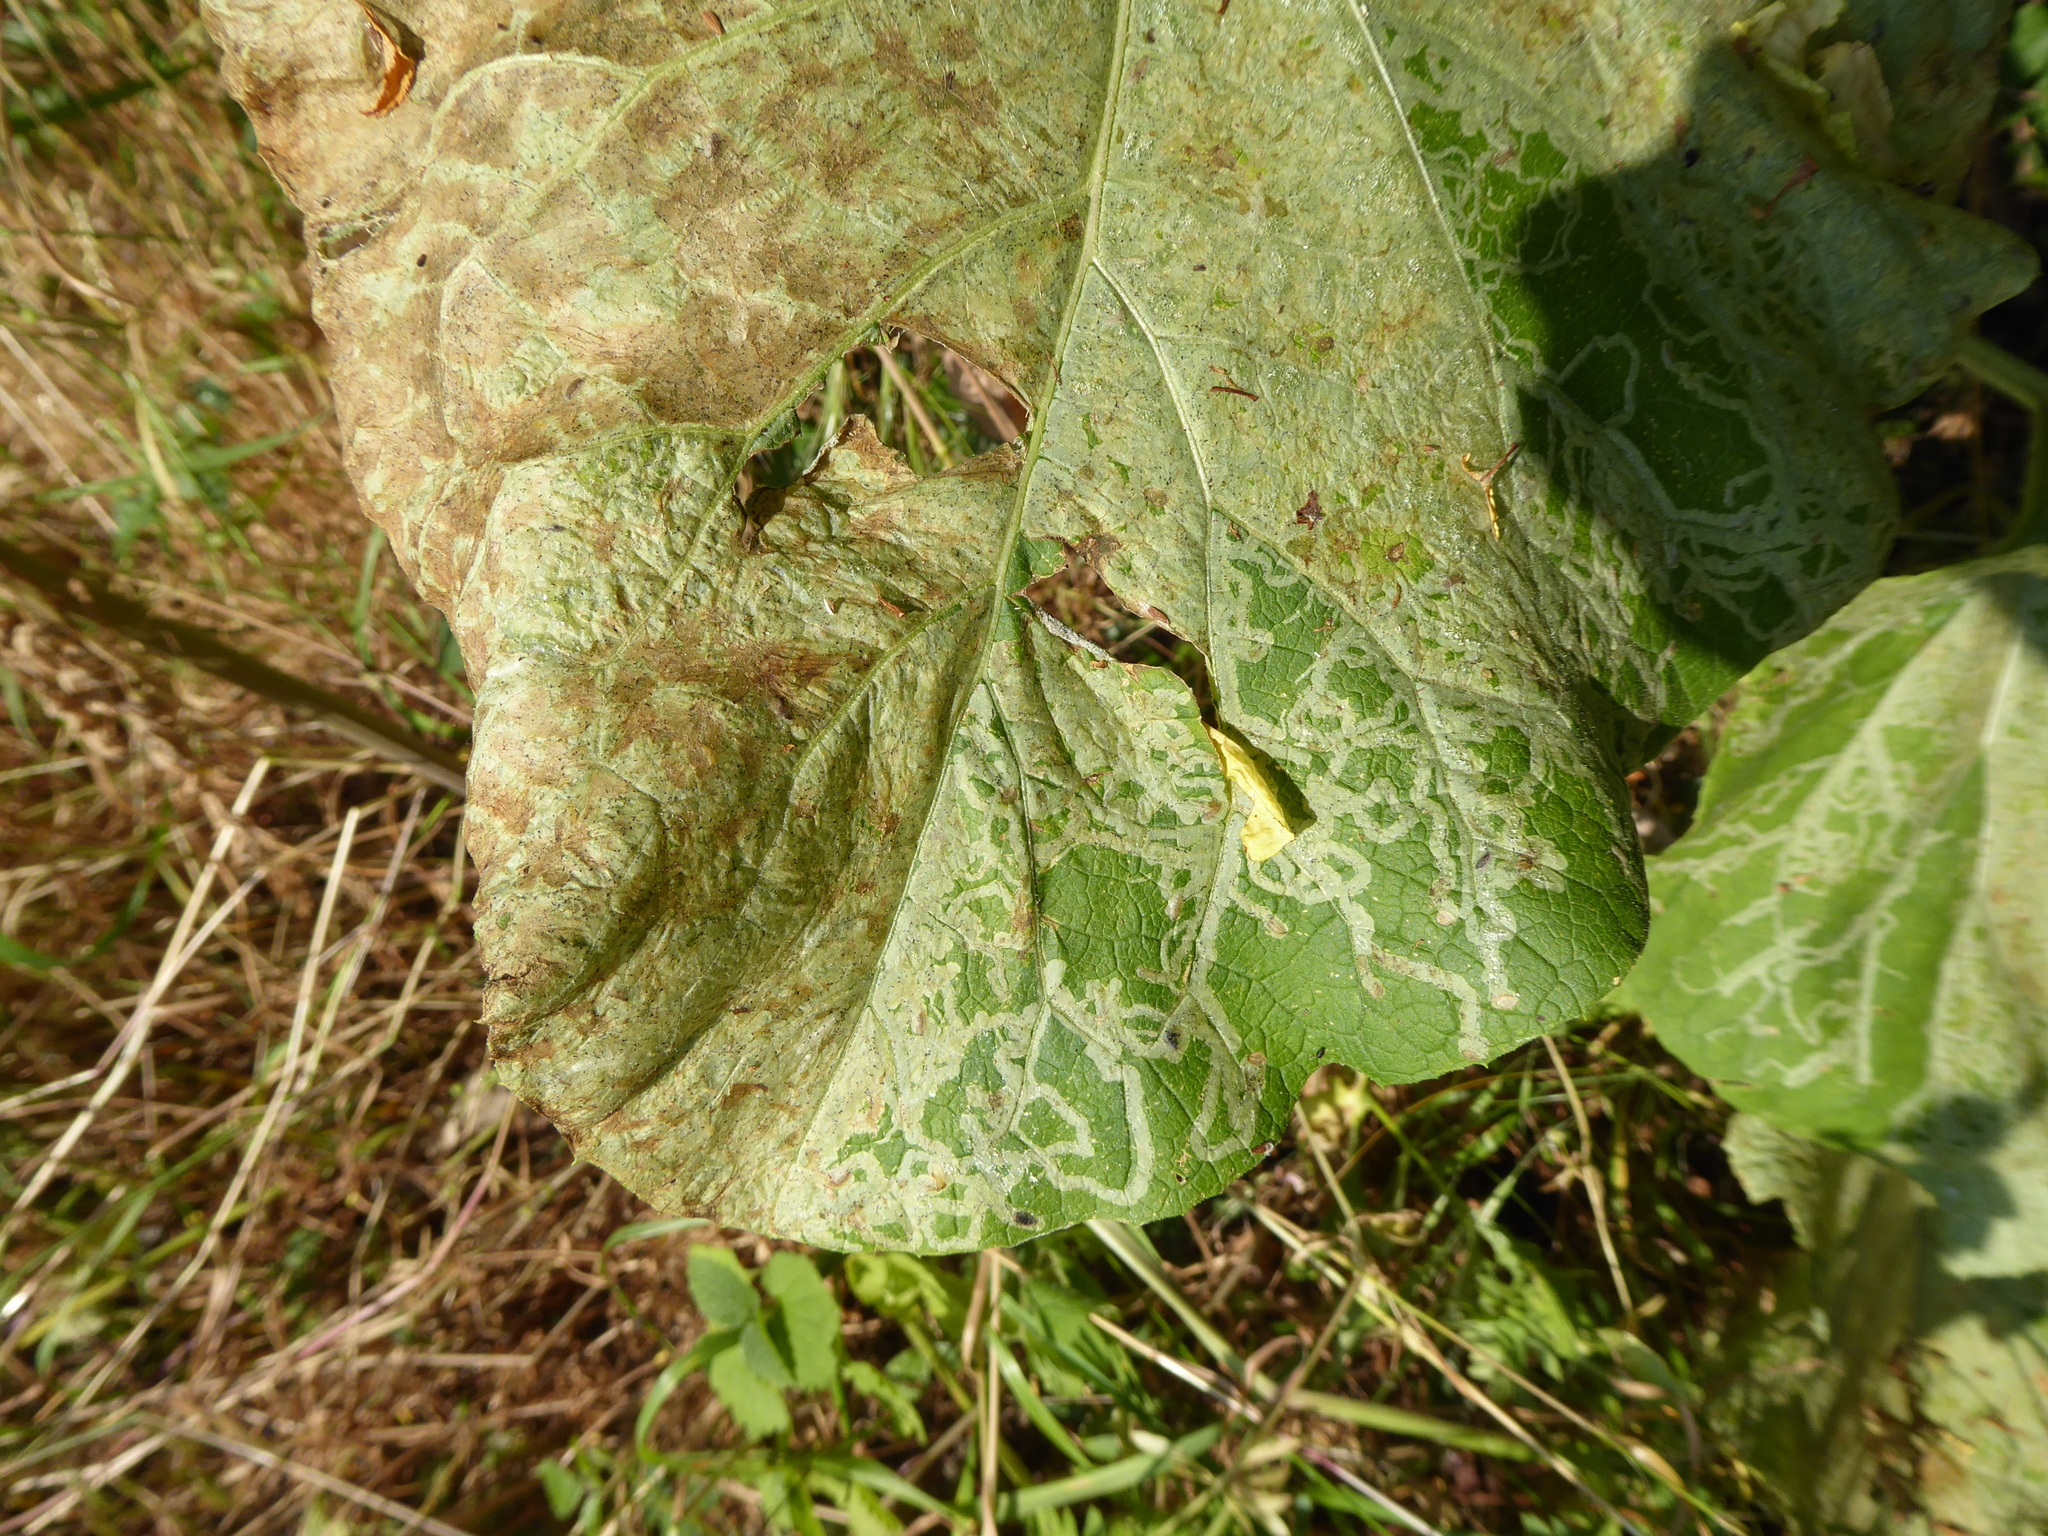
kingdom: Animalia
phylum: Arthropoda
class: Insecta
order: Diptera
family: Agromyzidae
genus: Phytomyza
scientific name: Phytomyza lappae
